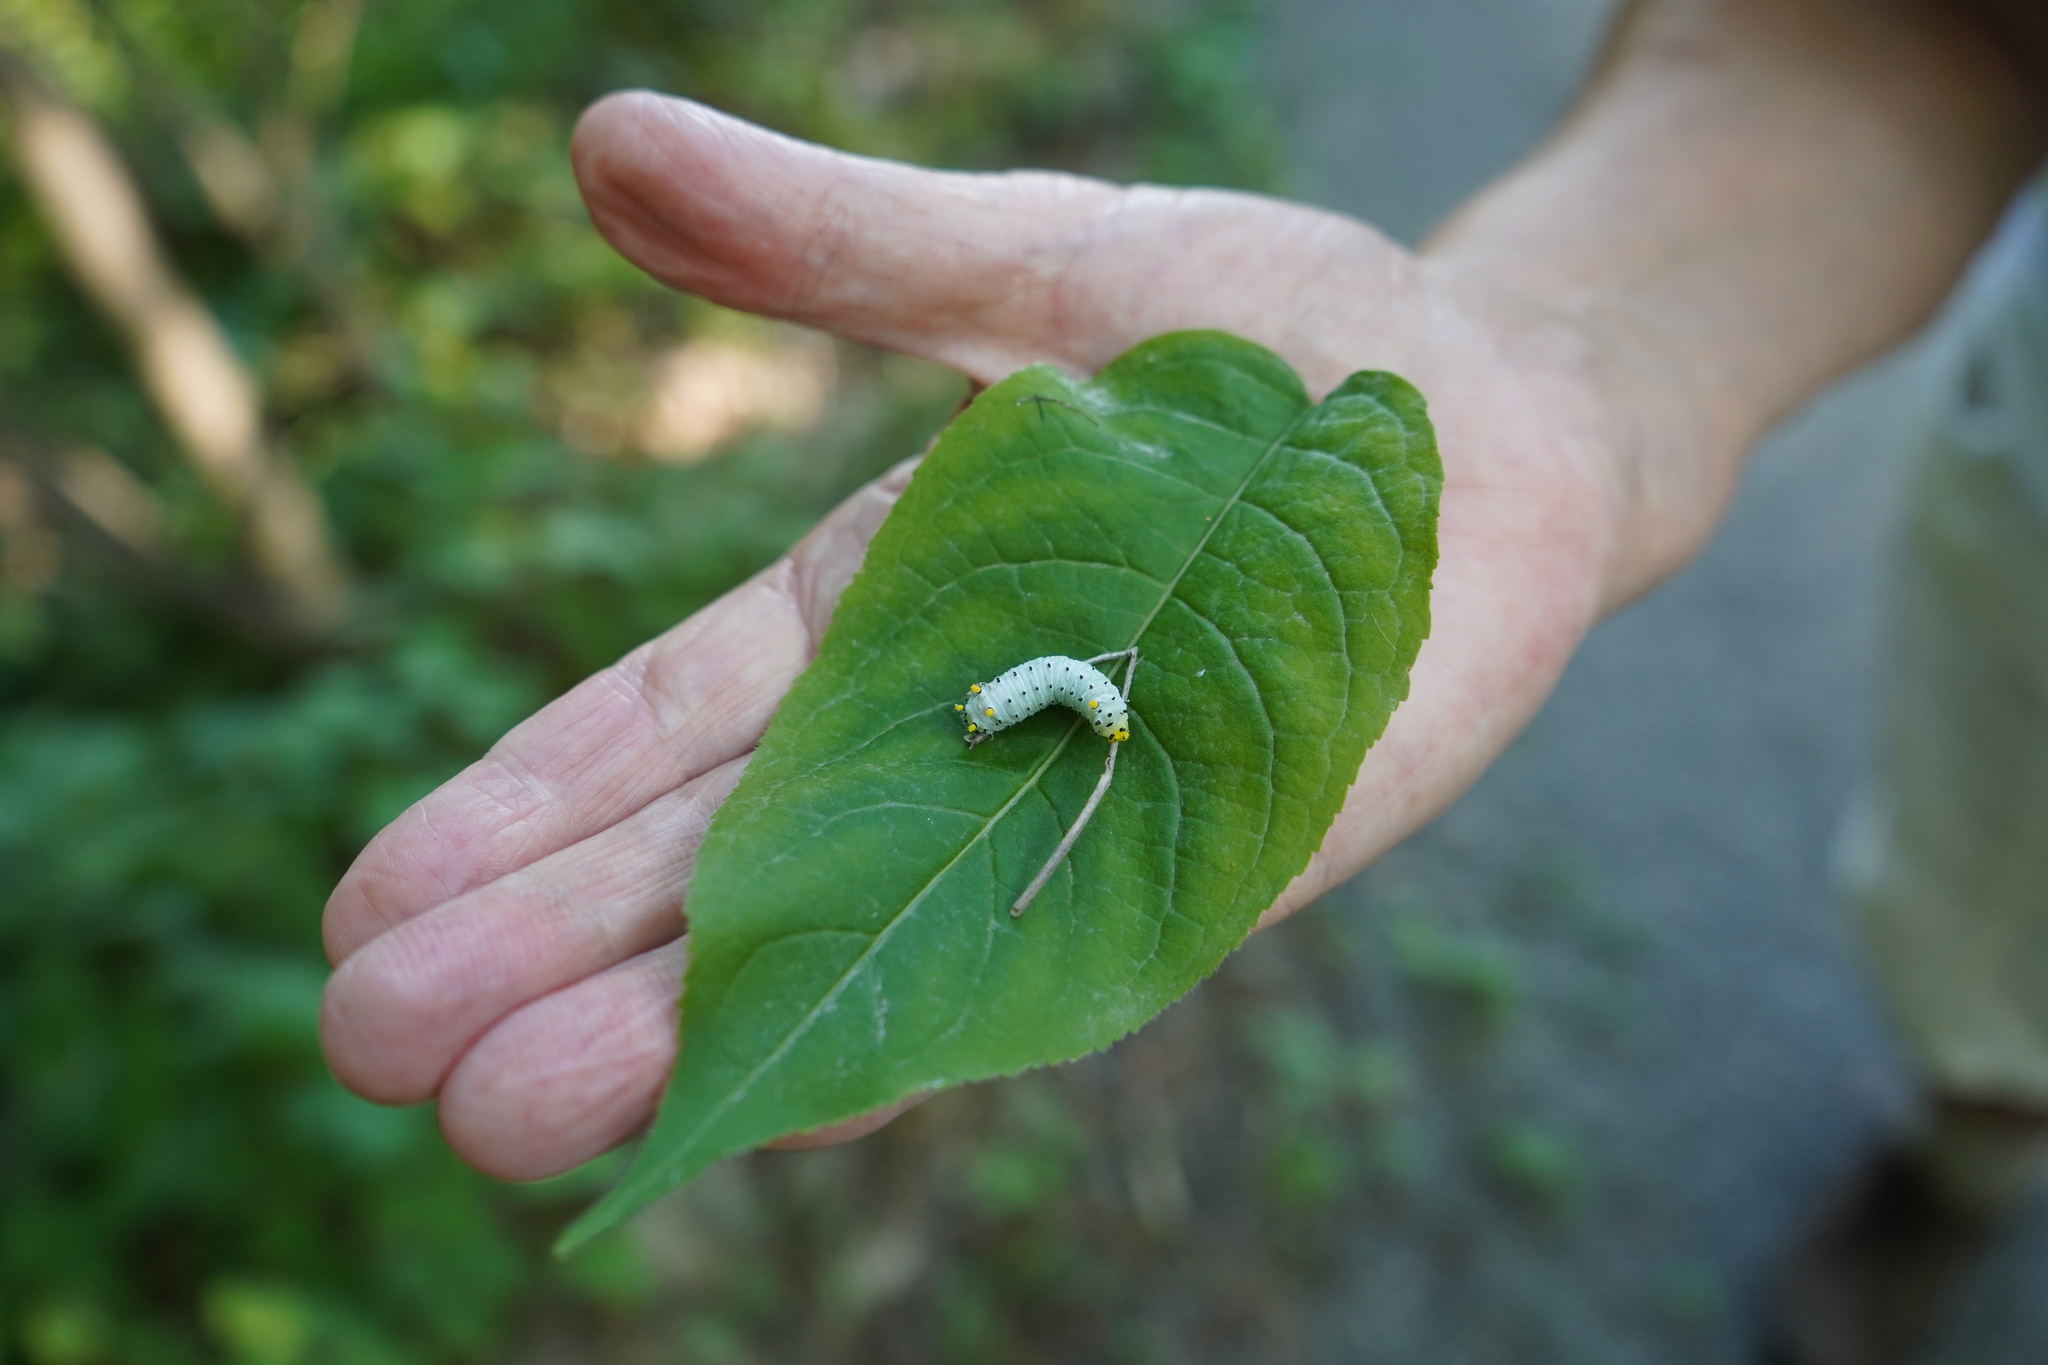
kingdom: Animalia
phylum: Arthropoda
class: Insecta
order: Lepidoptera
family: Saturniidae
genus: Callosamia
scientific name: Callosamia promethea
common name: Promethea silkmoth
